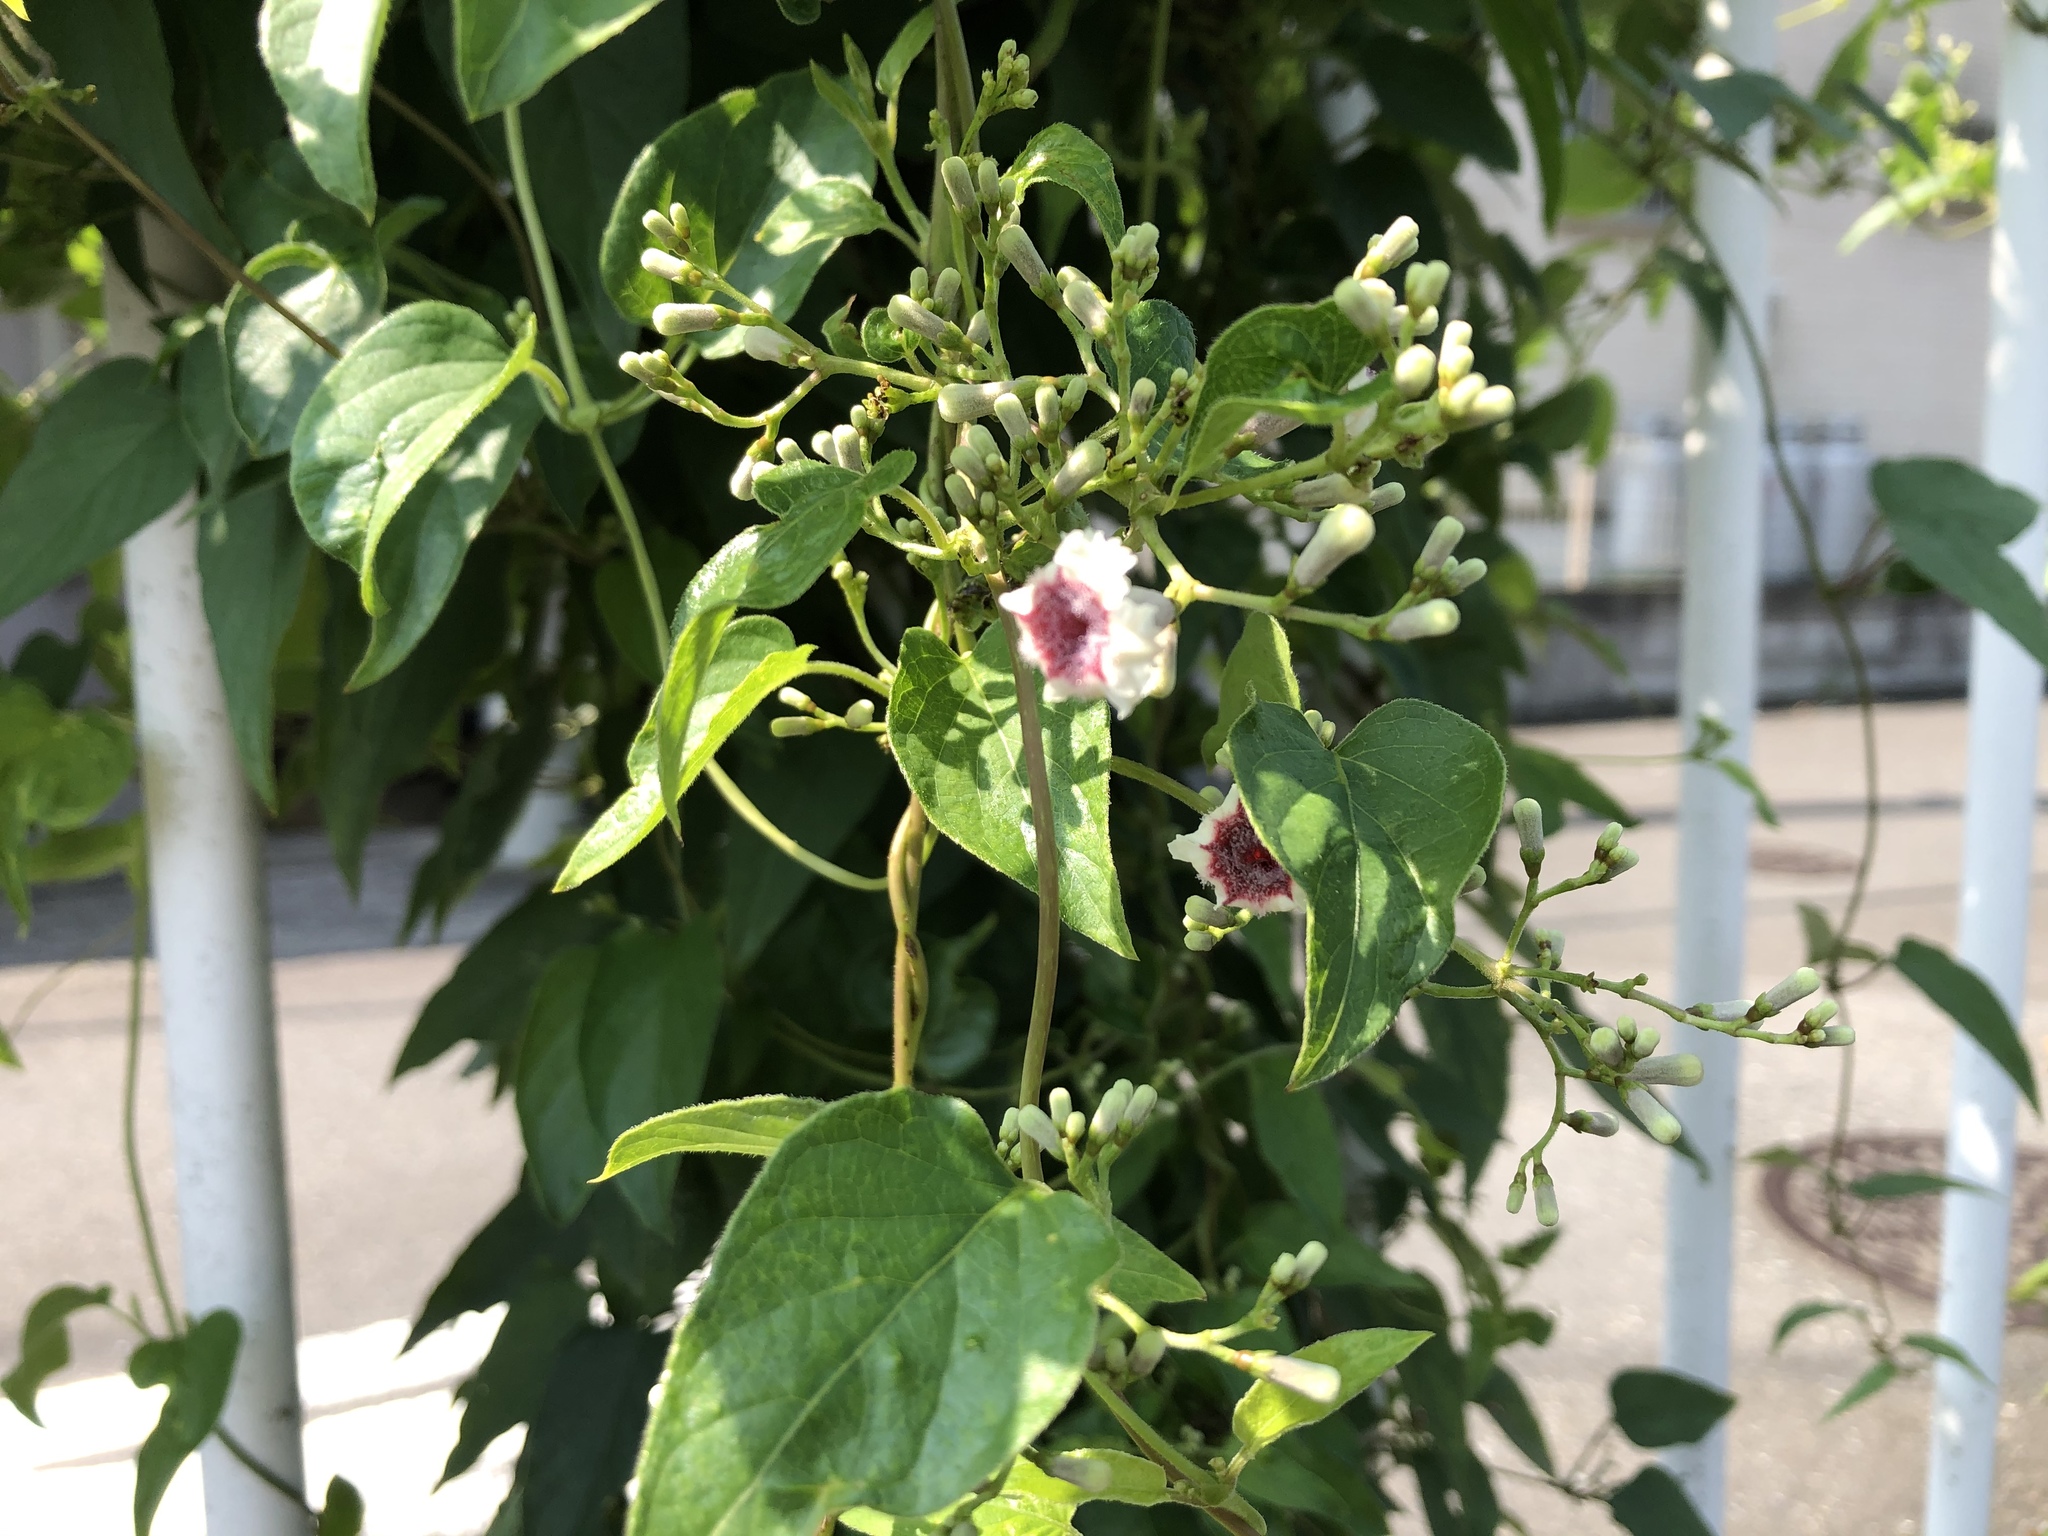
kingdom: Plantae
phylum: Tracheophyta
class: Magnoliopsida
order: Gentianales
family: Rubiaceae
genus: Paederia
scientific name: Paederia foetida
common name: Stinkvine
